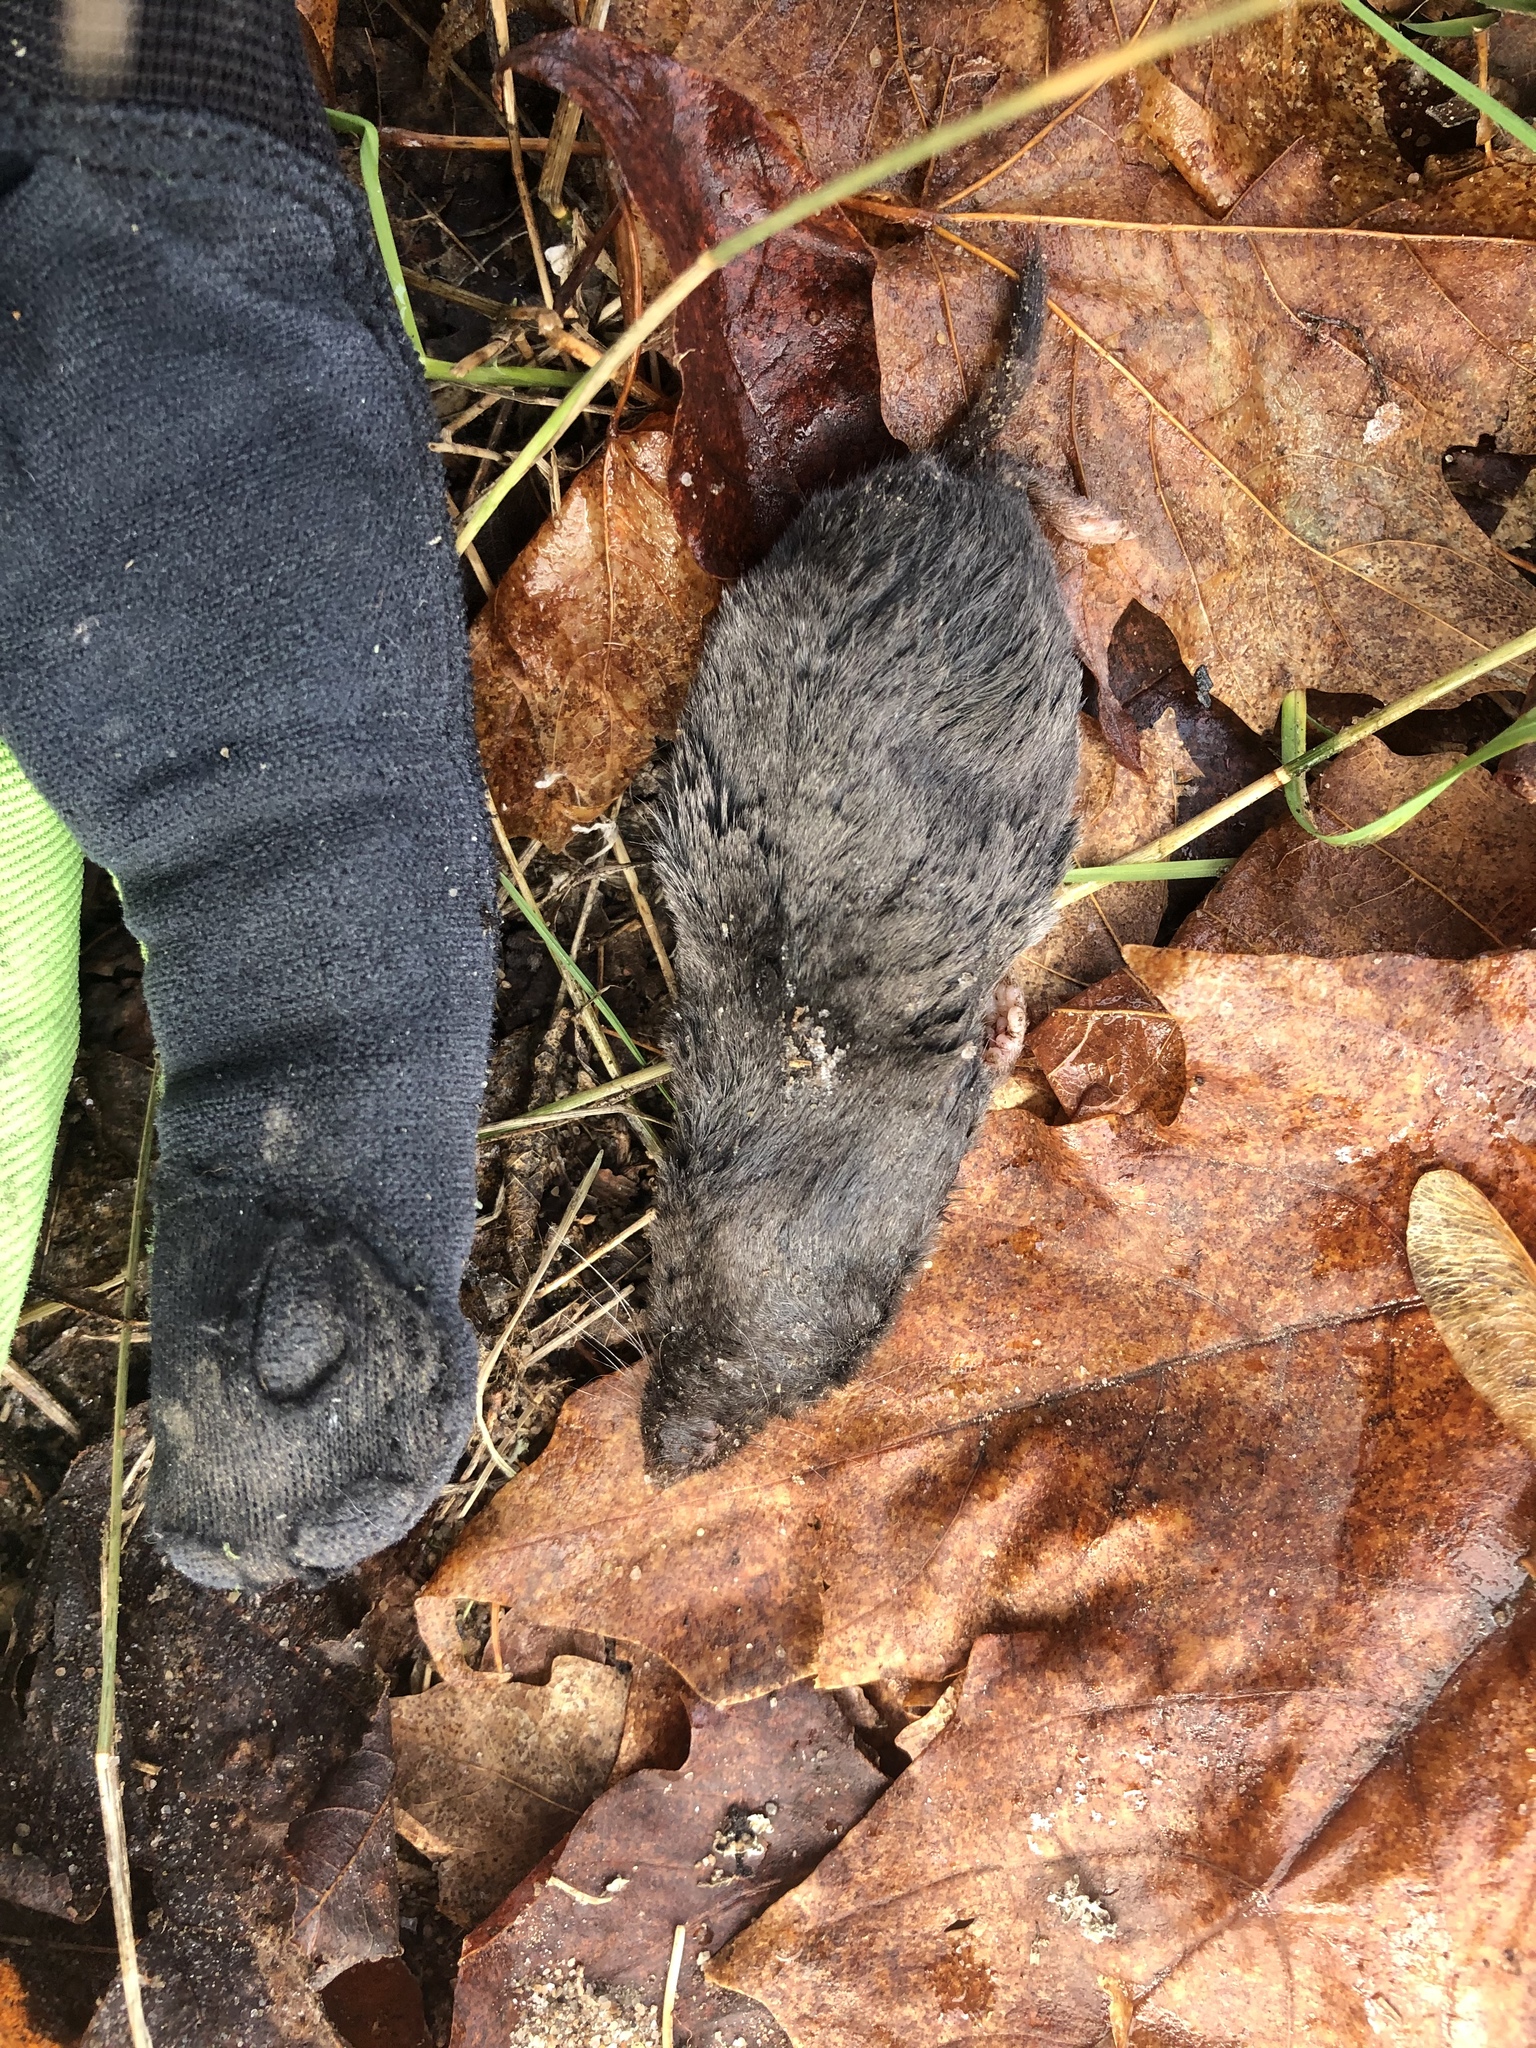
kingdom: Animalia
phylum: Chordata
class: Mammalia
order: Soricomorpha
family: Soricidae
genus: Blarina
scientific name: Blarina brevicauda
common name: Northern short-tailed shrew
